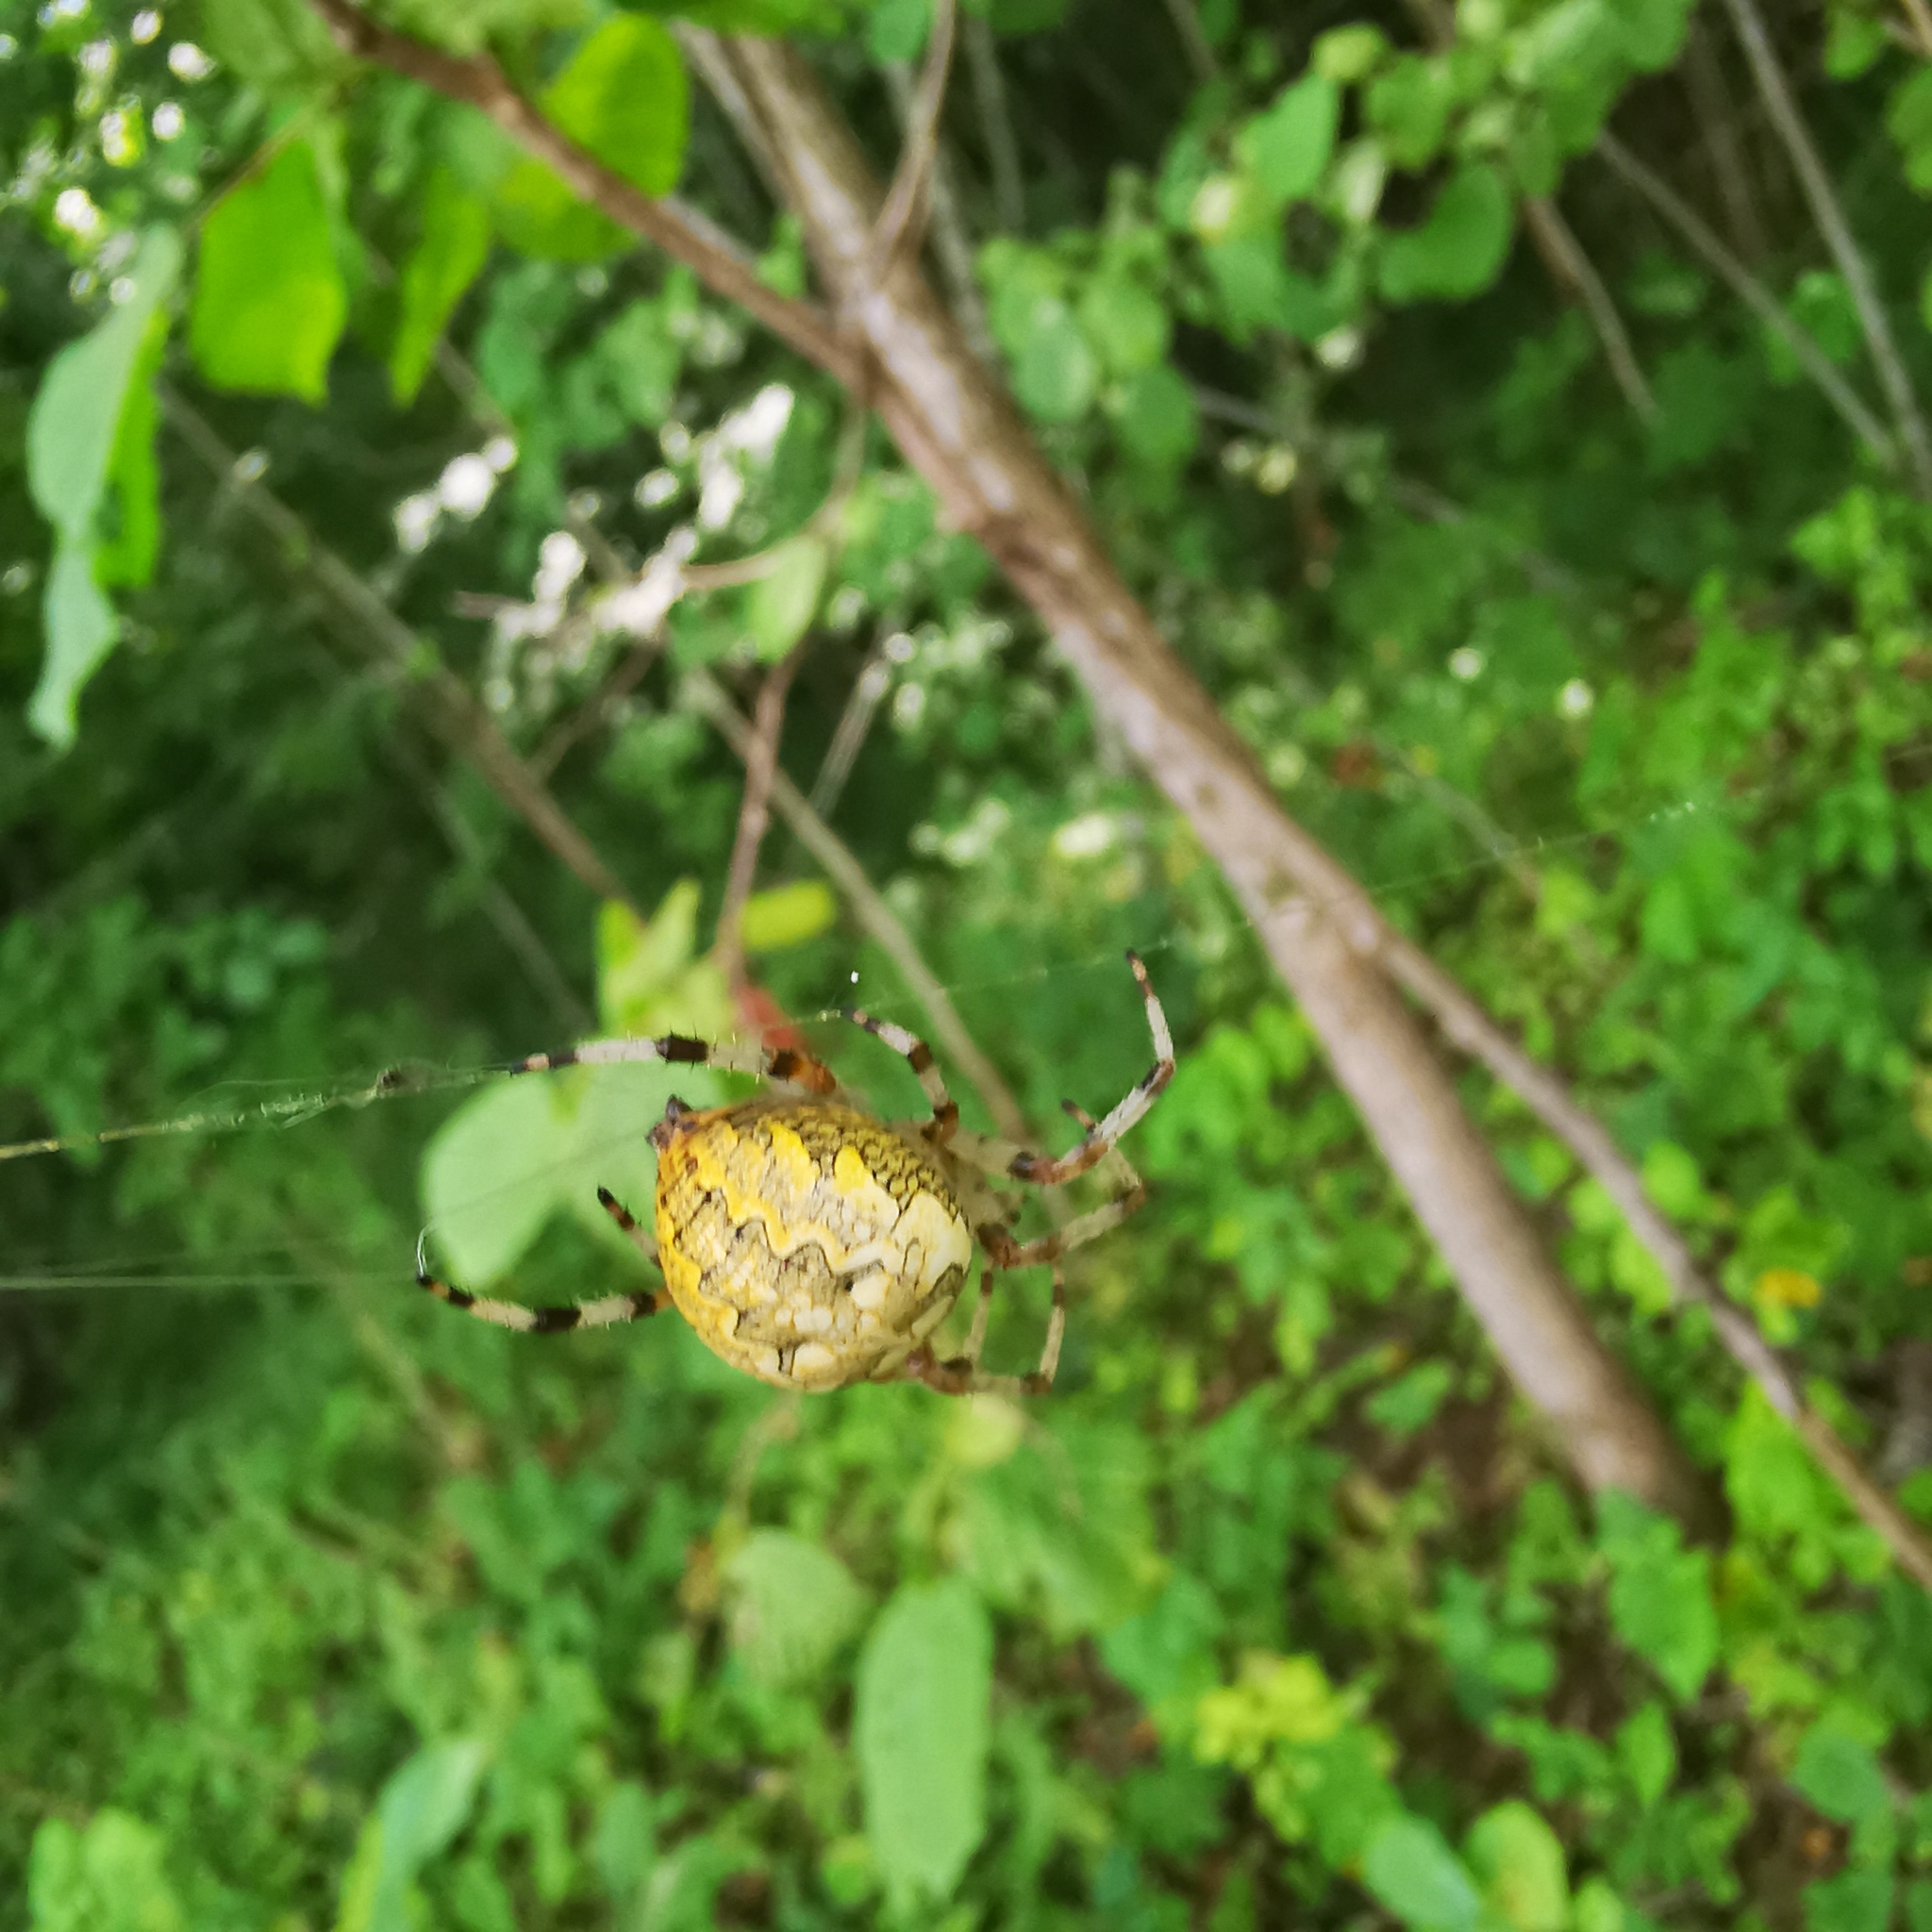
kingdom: Animalia
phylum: Arthropoda
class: Arachnida
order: Araneae
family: Araneidae
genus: Araneus
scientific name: Araneus marmoreus
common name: Marbled orbweaver
